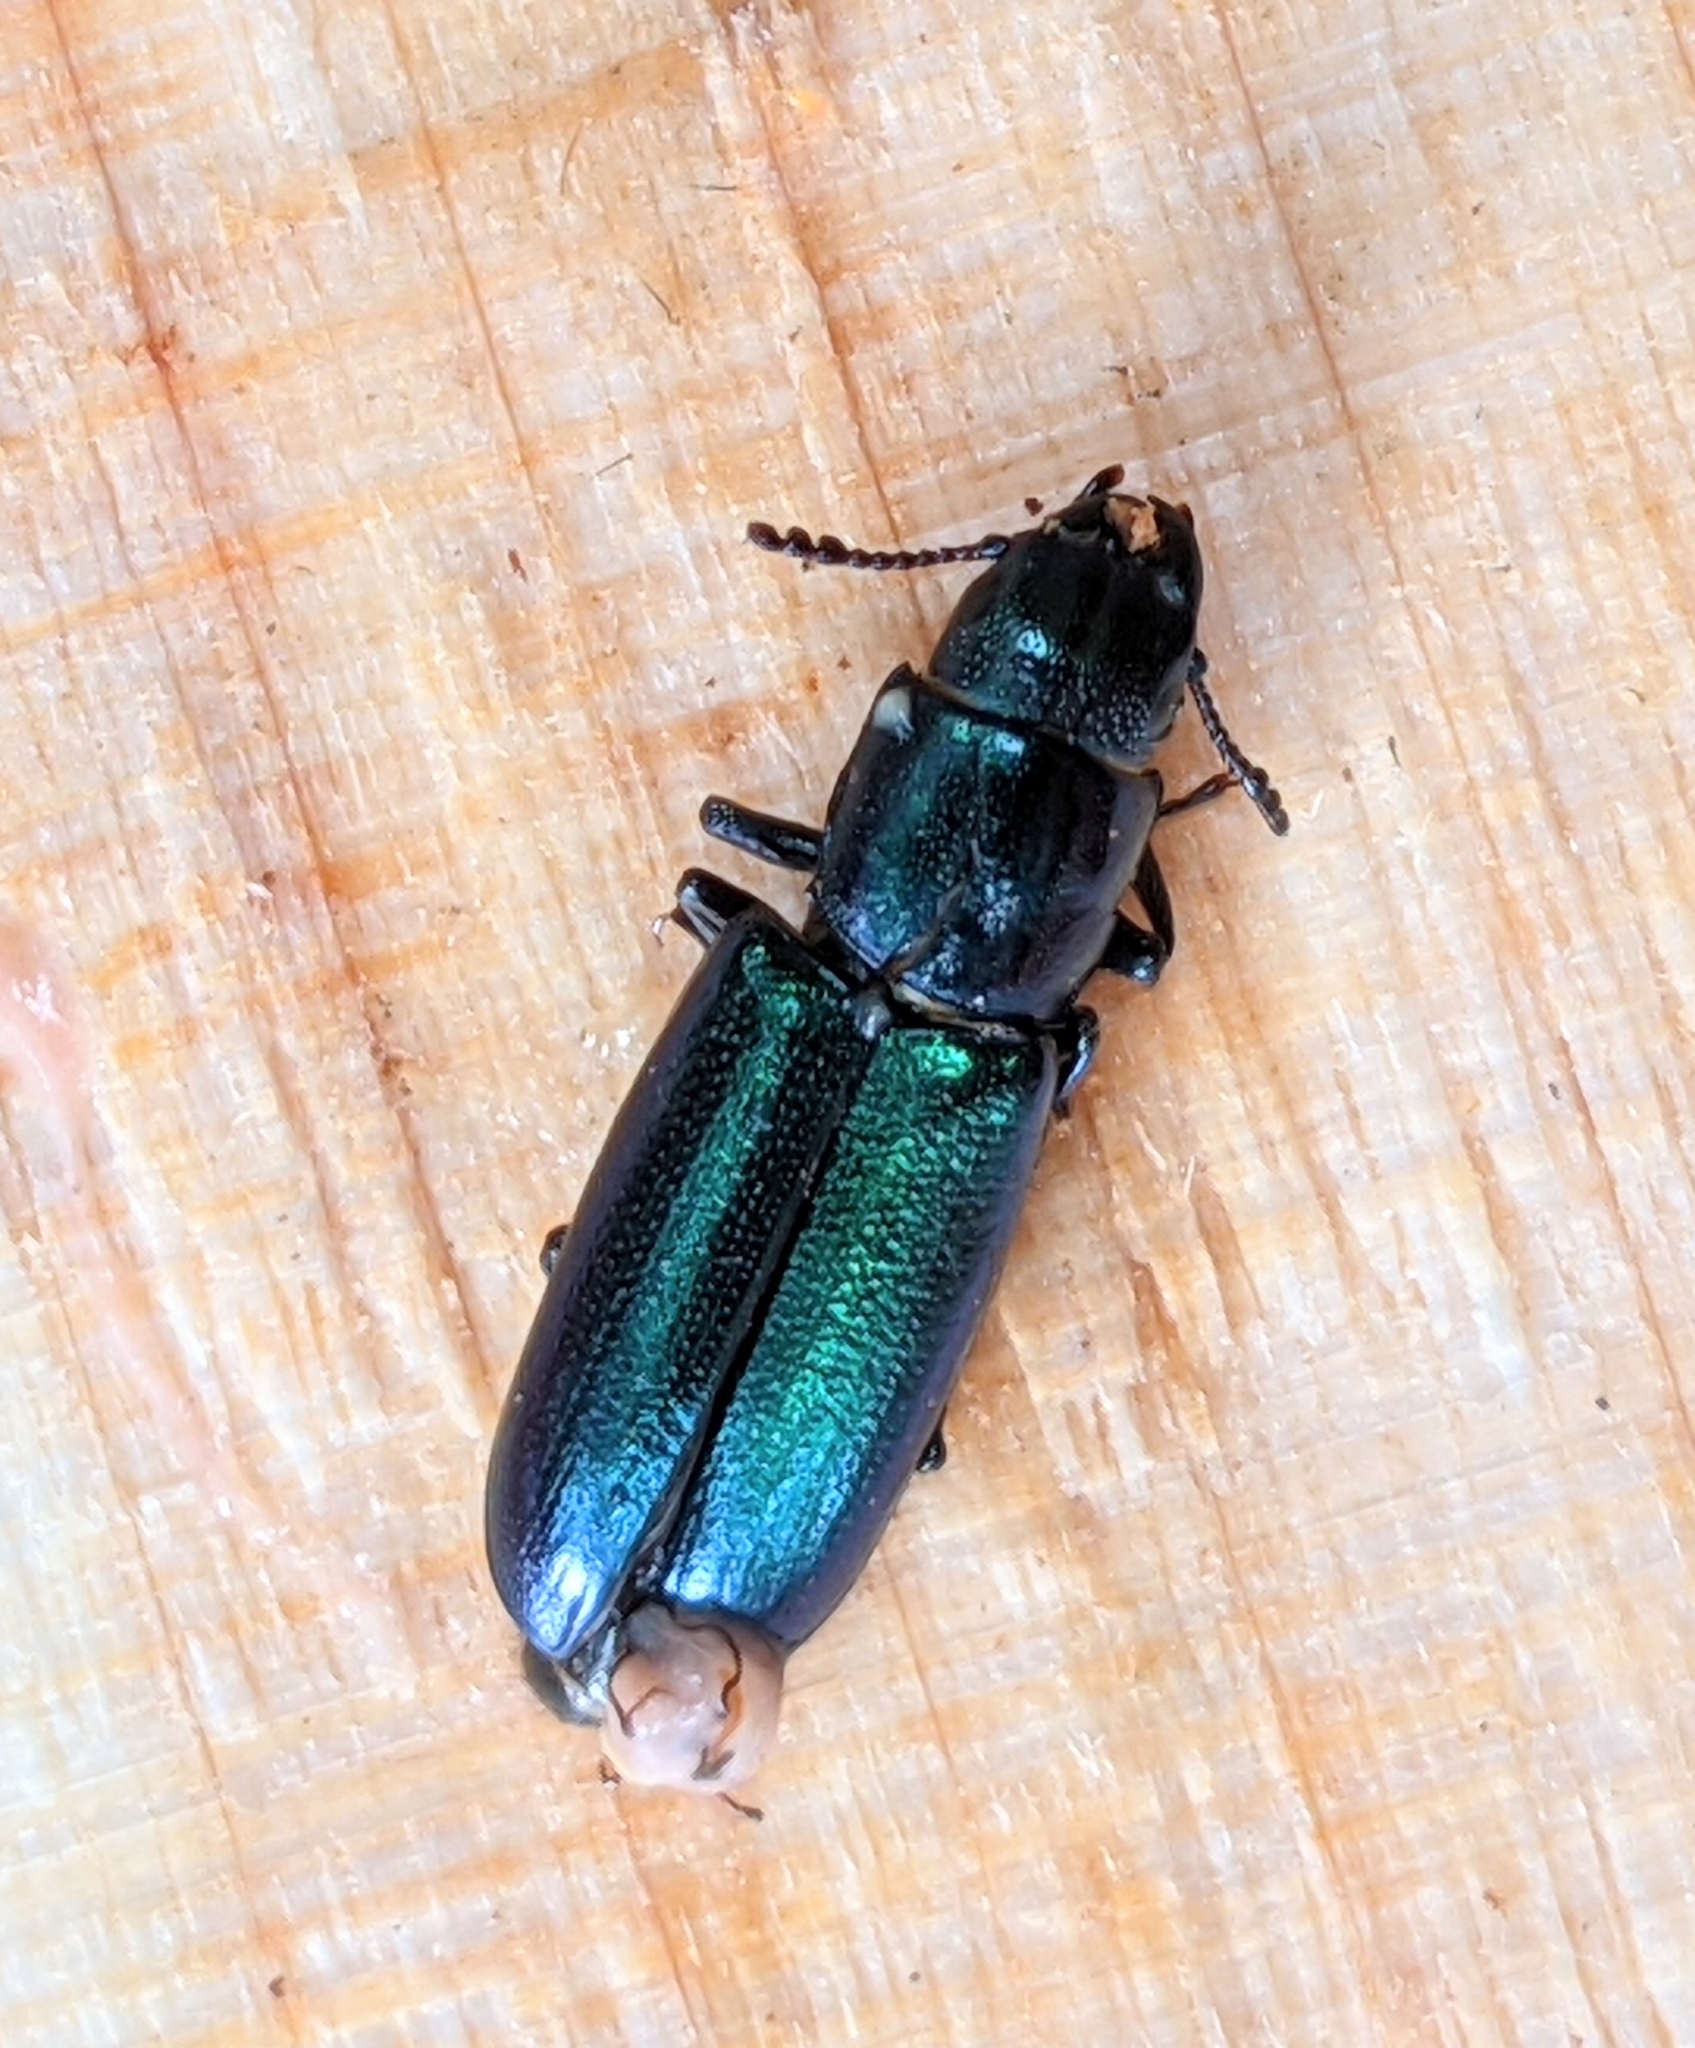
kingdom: Animalia
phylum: Arthropoda
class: Insecta
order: Coleoptera
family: Trogossitidae
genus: Temnoscheila
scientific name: Temnoscheila chlorodia
